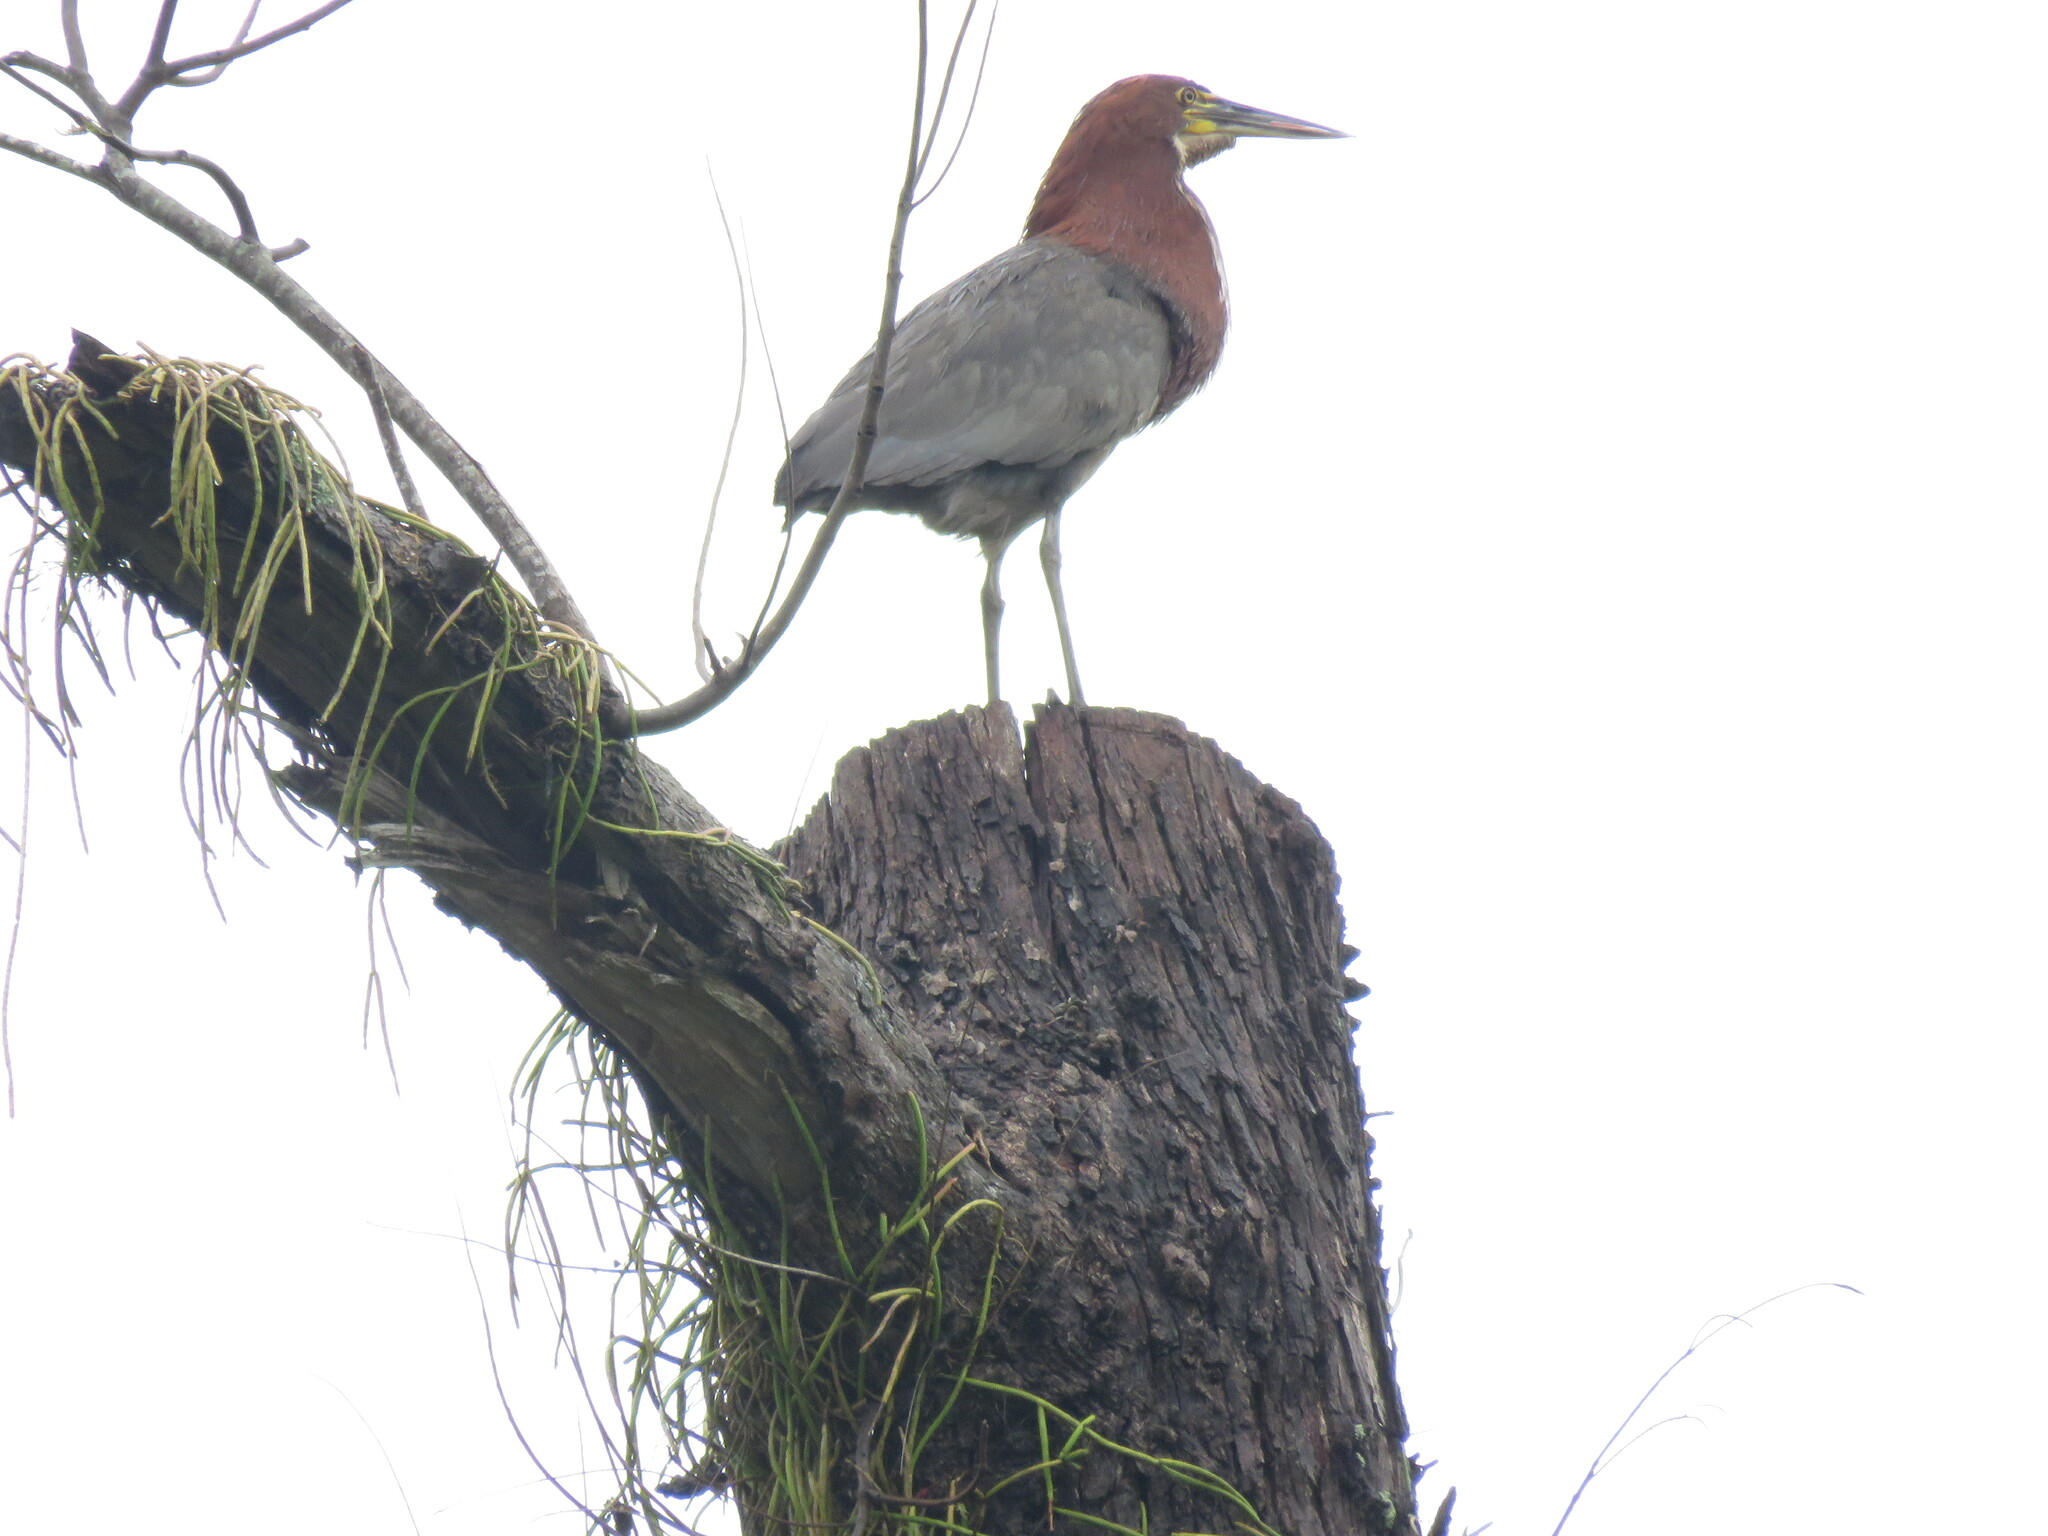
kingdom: Animalia
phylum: Chordata
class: Aves
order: Pelecaniformes
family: Ardeidae
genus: Tigrisoma
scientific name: Tigrisoma lineatum
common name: Rufescent tiger-heron
